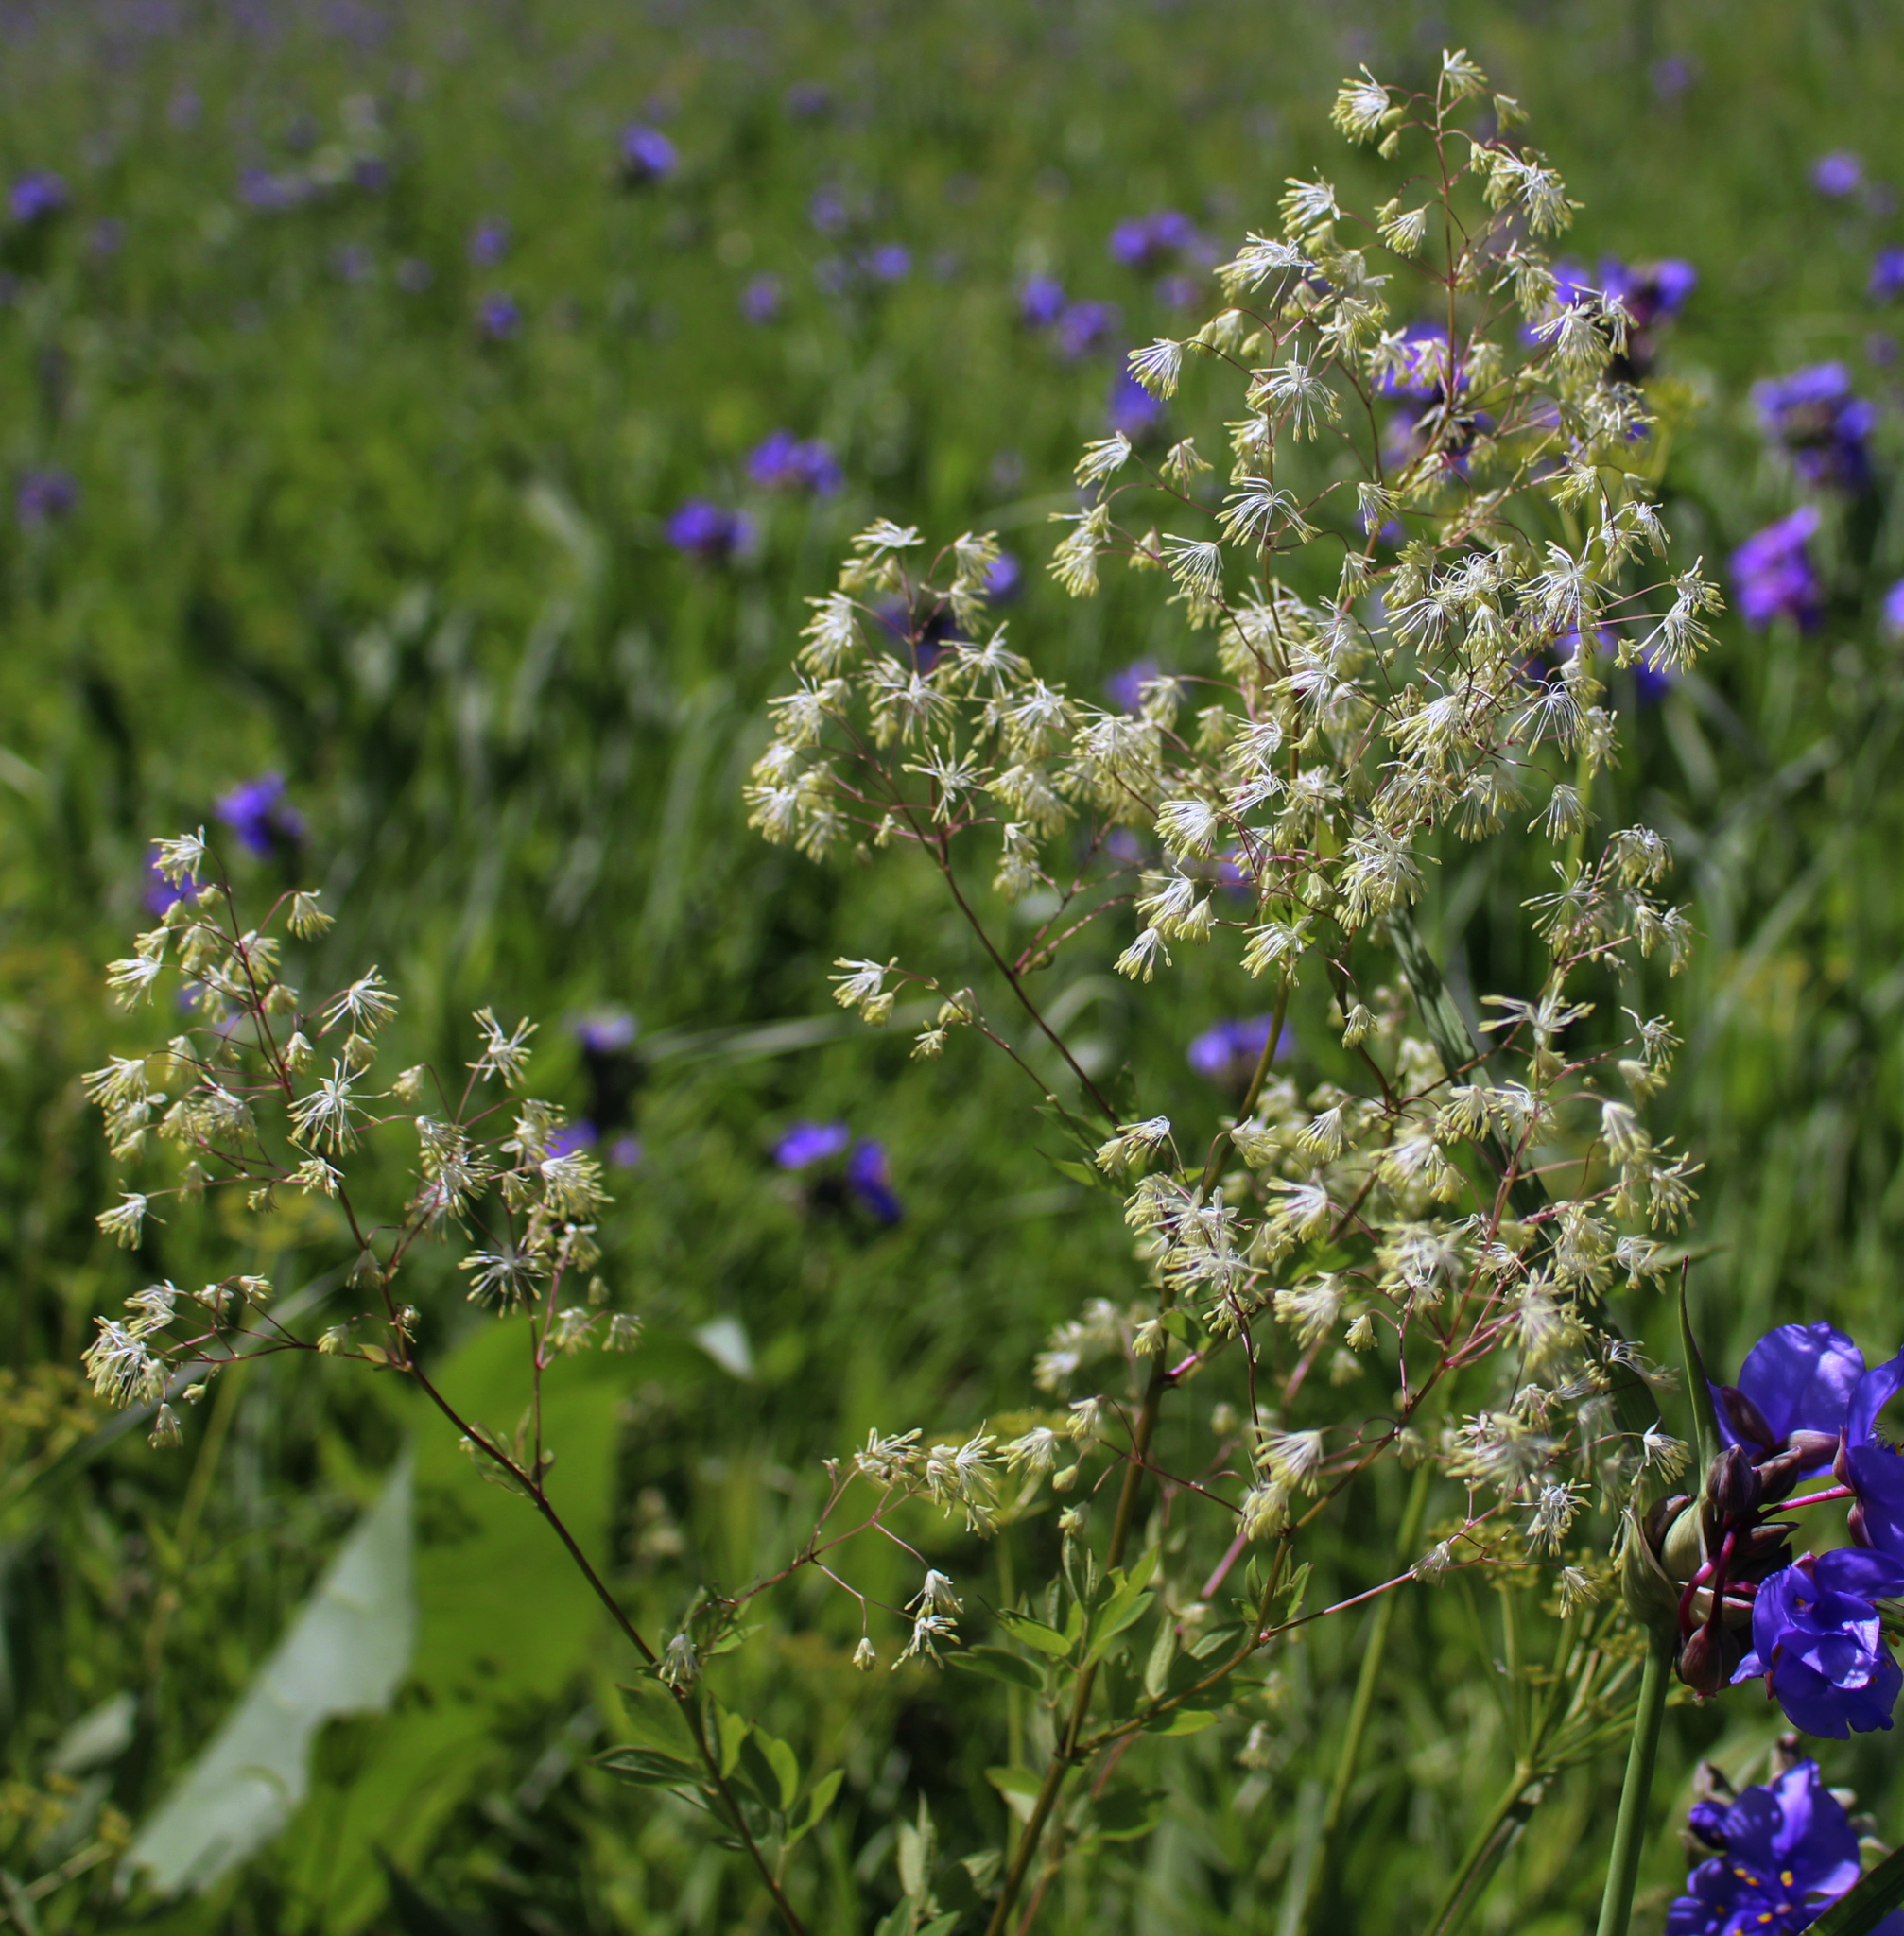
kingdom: Plantae
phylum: Tracheophyta
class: Magnoliopsida
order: Ranunculales
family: Ranunculaceae
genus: Thalictrum
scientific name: Thalictrum dasycarpum
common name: Purple meadow-rue
